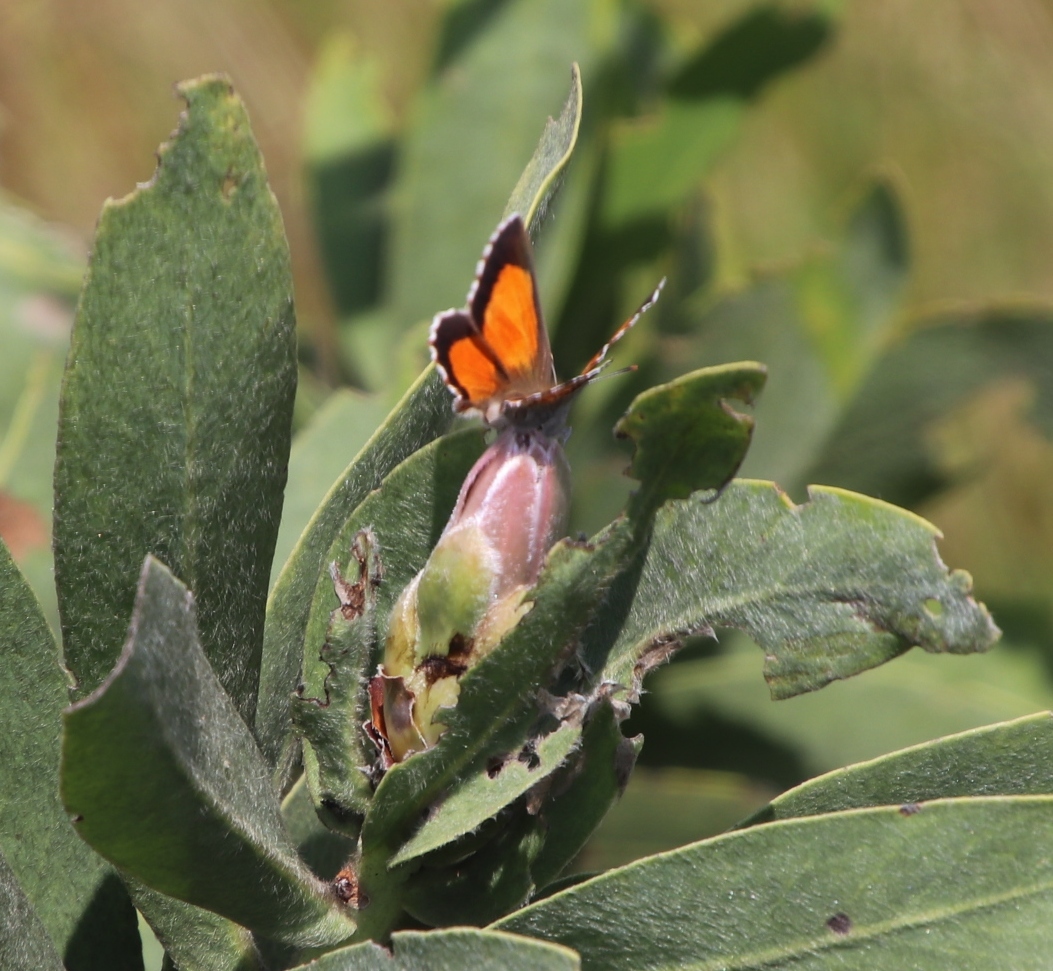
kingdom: Animalia
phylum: Arthropoda
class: Insecta
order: Lepidoptera
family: Lycaenidae
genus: Capys
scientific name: Capys alpheus
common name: Orange-banded protea butterfly
